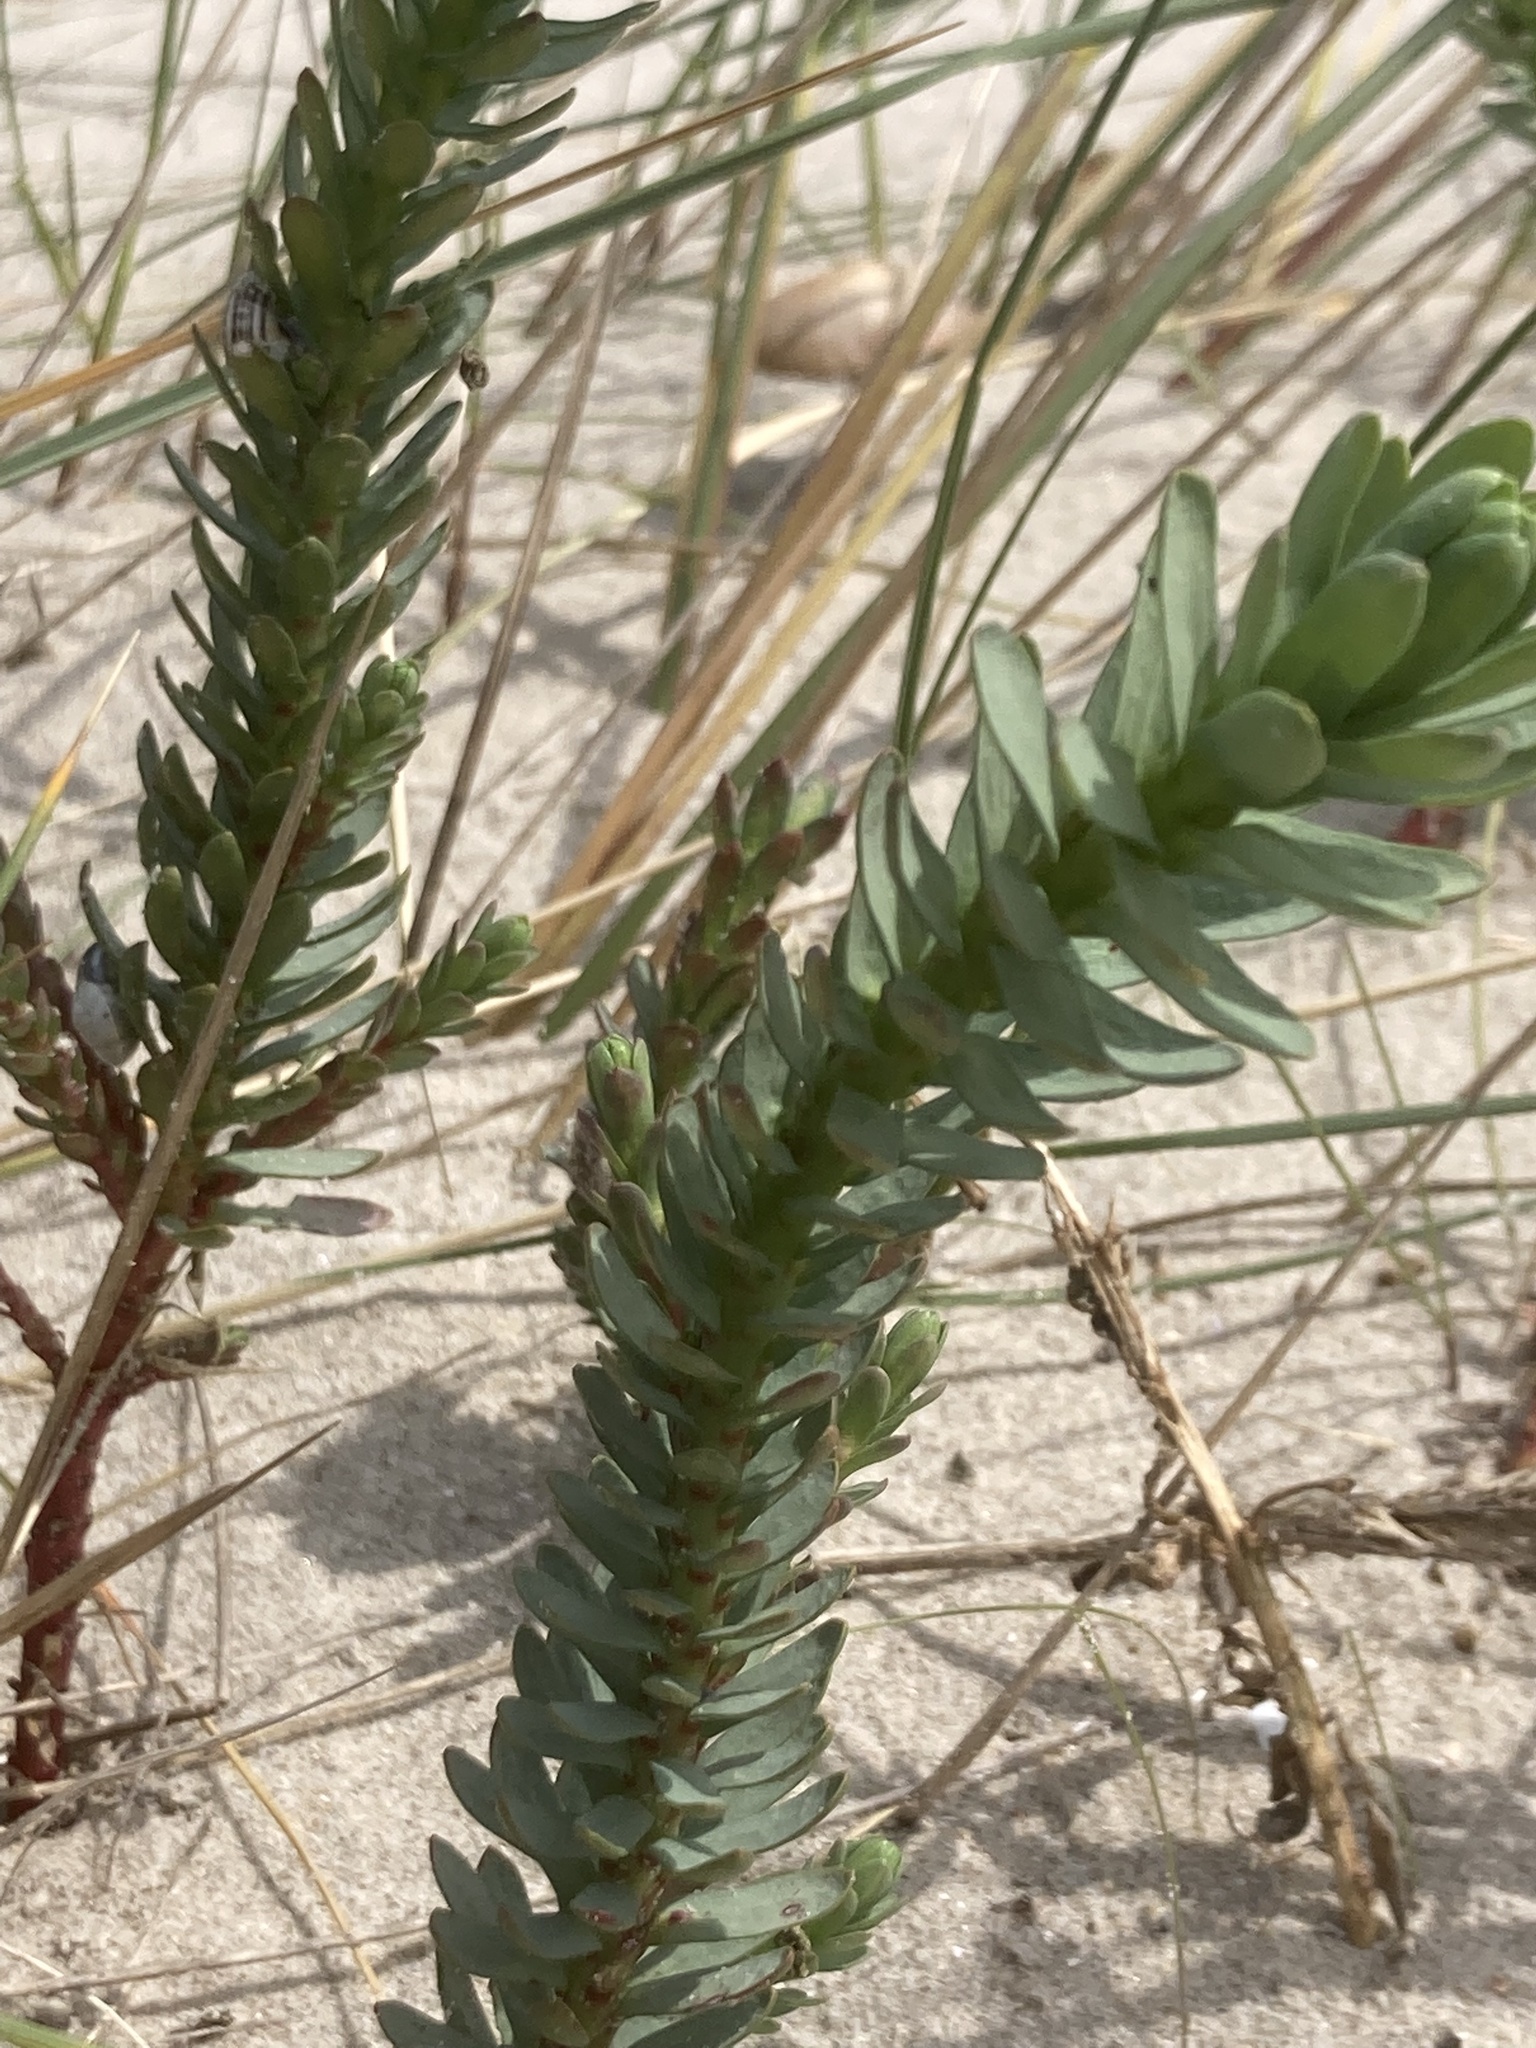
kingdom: Plantae
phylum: Tracheophyta
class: Magnoliopsida
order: Malpighiales
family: Euphorbiaceae
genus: Euphorbia
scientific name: Euphorbia paralias
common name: Sea spurge
